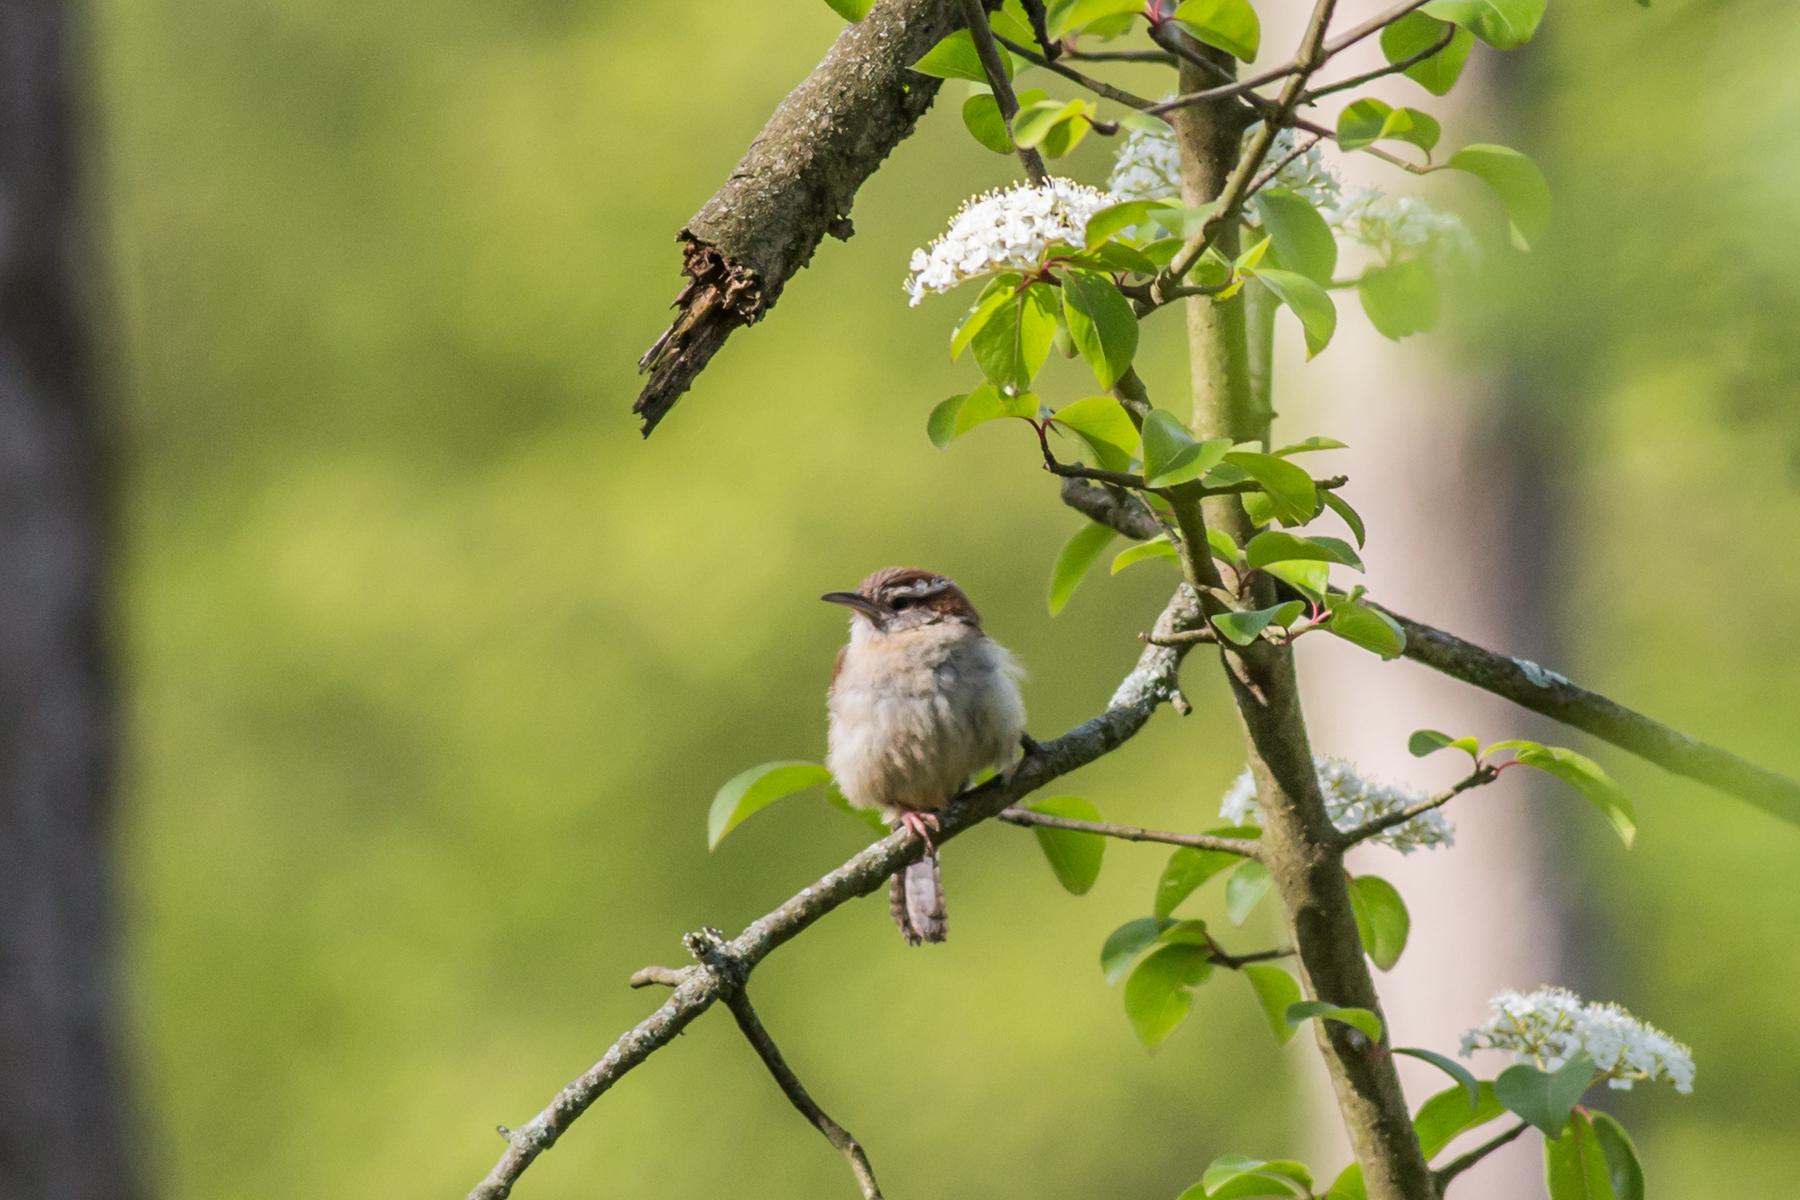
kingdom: Animalia
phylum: Chordata
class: Aves
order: Passeriformes
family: Troglodytidae
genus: Thryothorus
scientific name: Thryothorus ludovicianus
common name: Carolina wren
